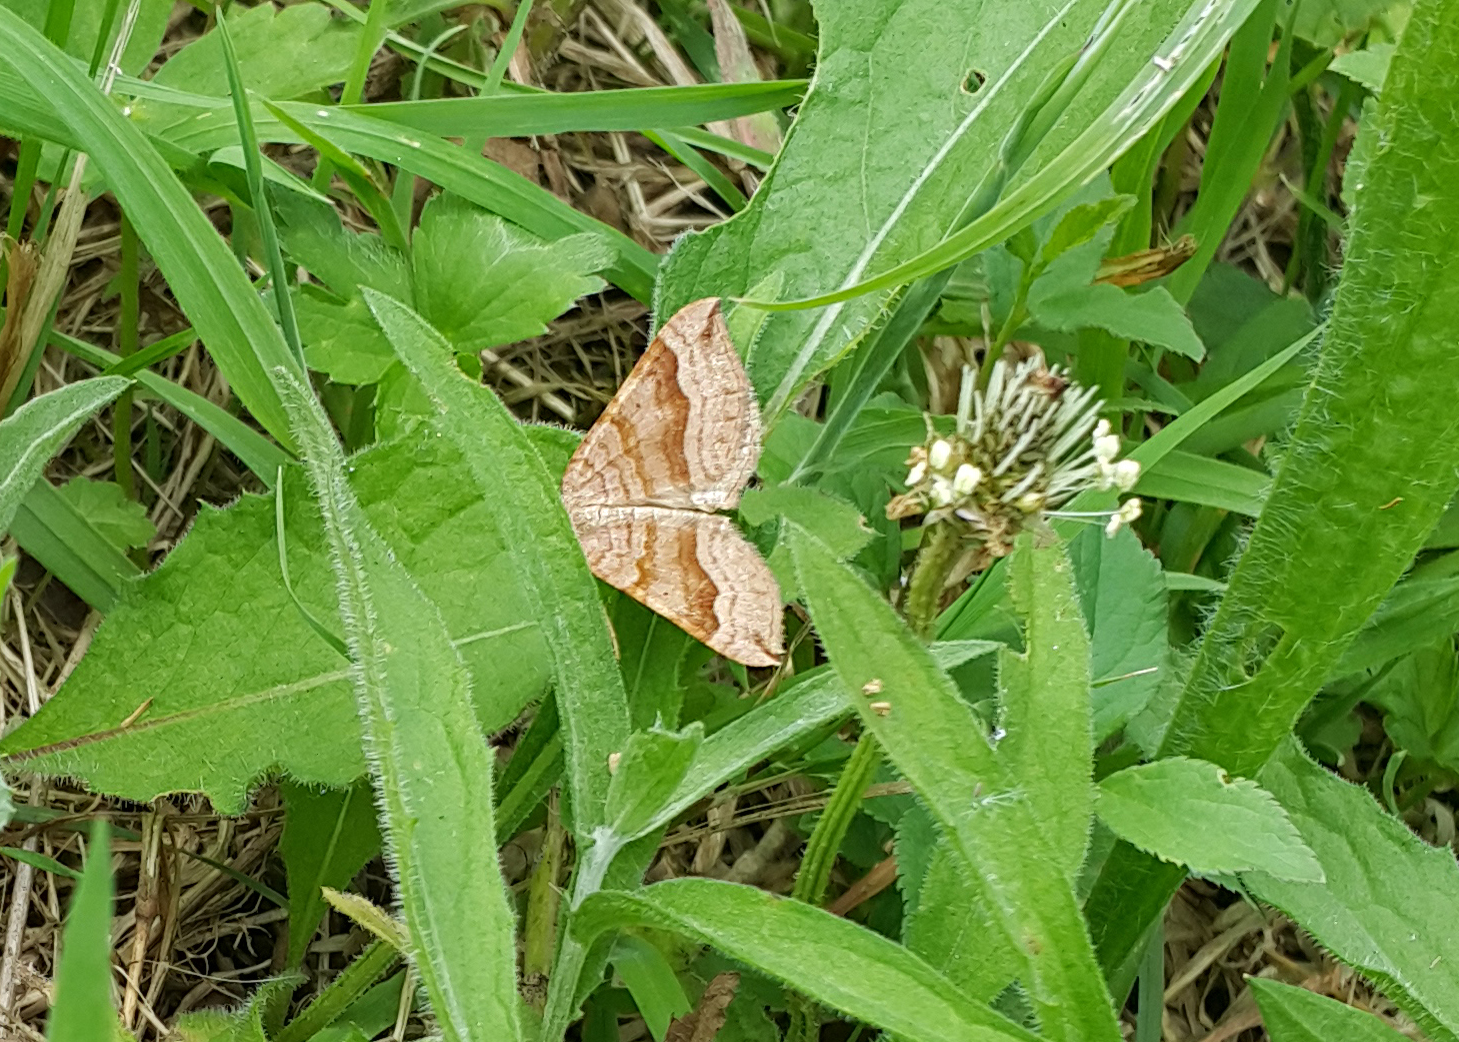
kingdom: Animalia
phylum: Arthropoda
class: Insecta
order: Lepidoptera
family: Geometridae
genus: Scotopteryx
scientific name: Scotopteryx chenopodiata
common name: Shaded broad-bar
